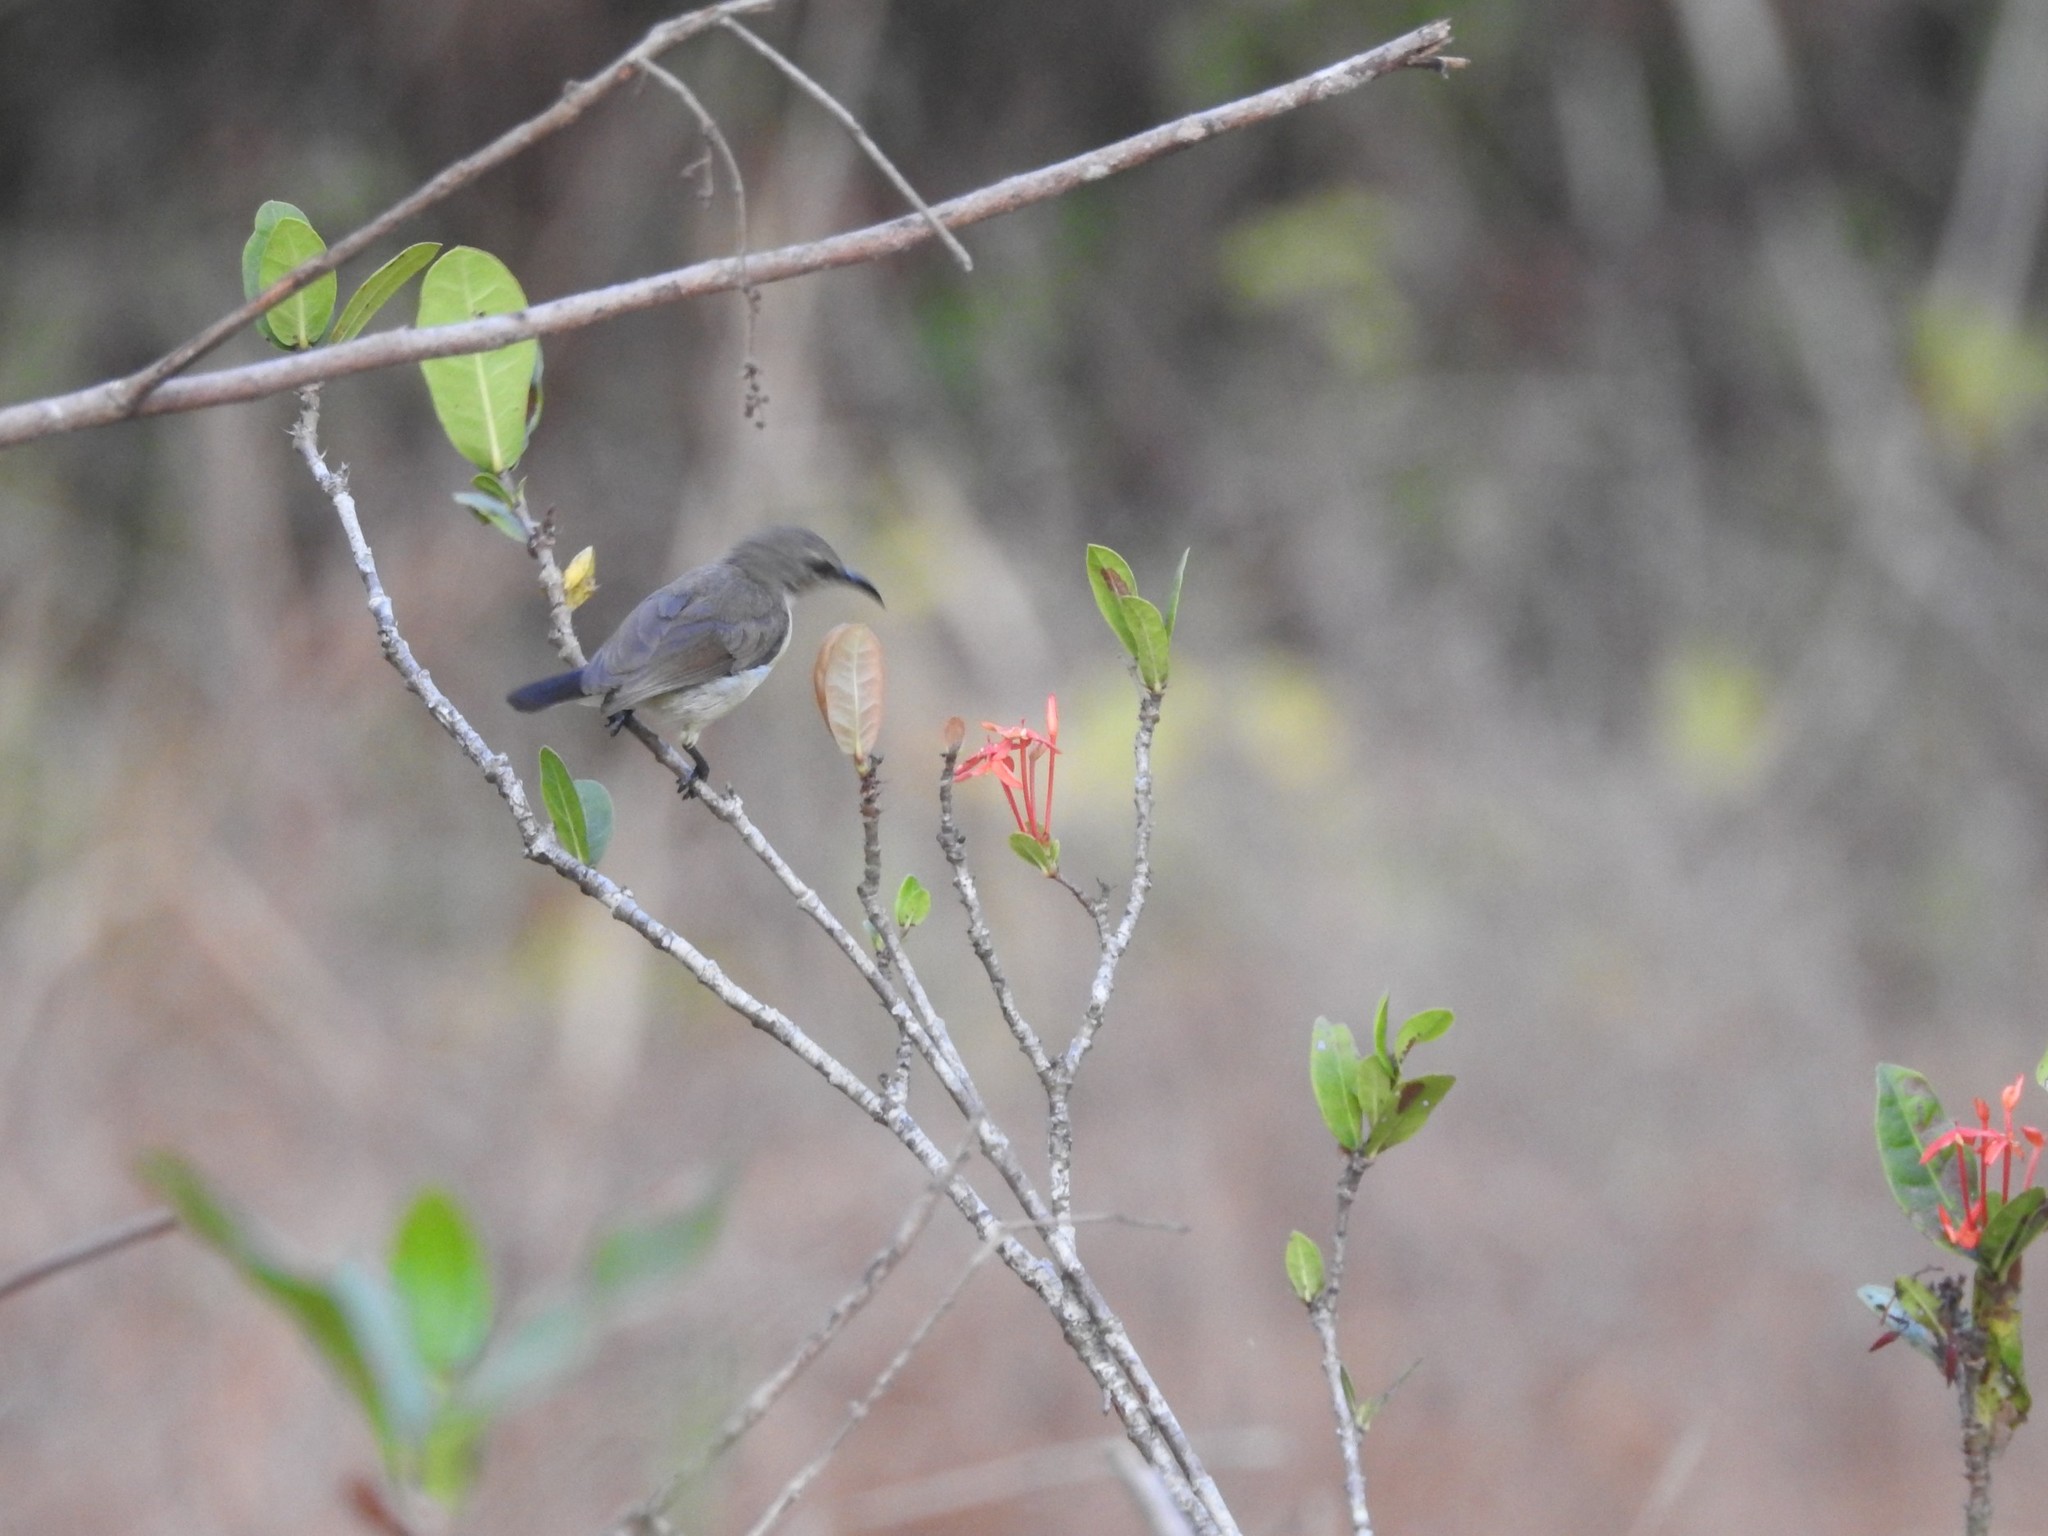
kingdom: Animalia
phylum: Chordata
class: Aves
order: Passeriformes
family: Nectariniidae
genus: Leptocoma
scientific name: Leptocoma zeylonica
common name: Purple-rumped sunbird
